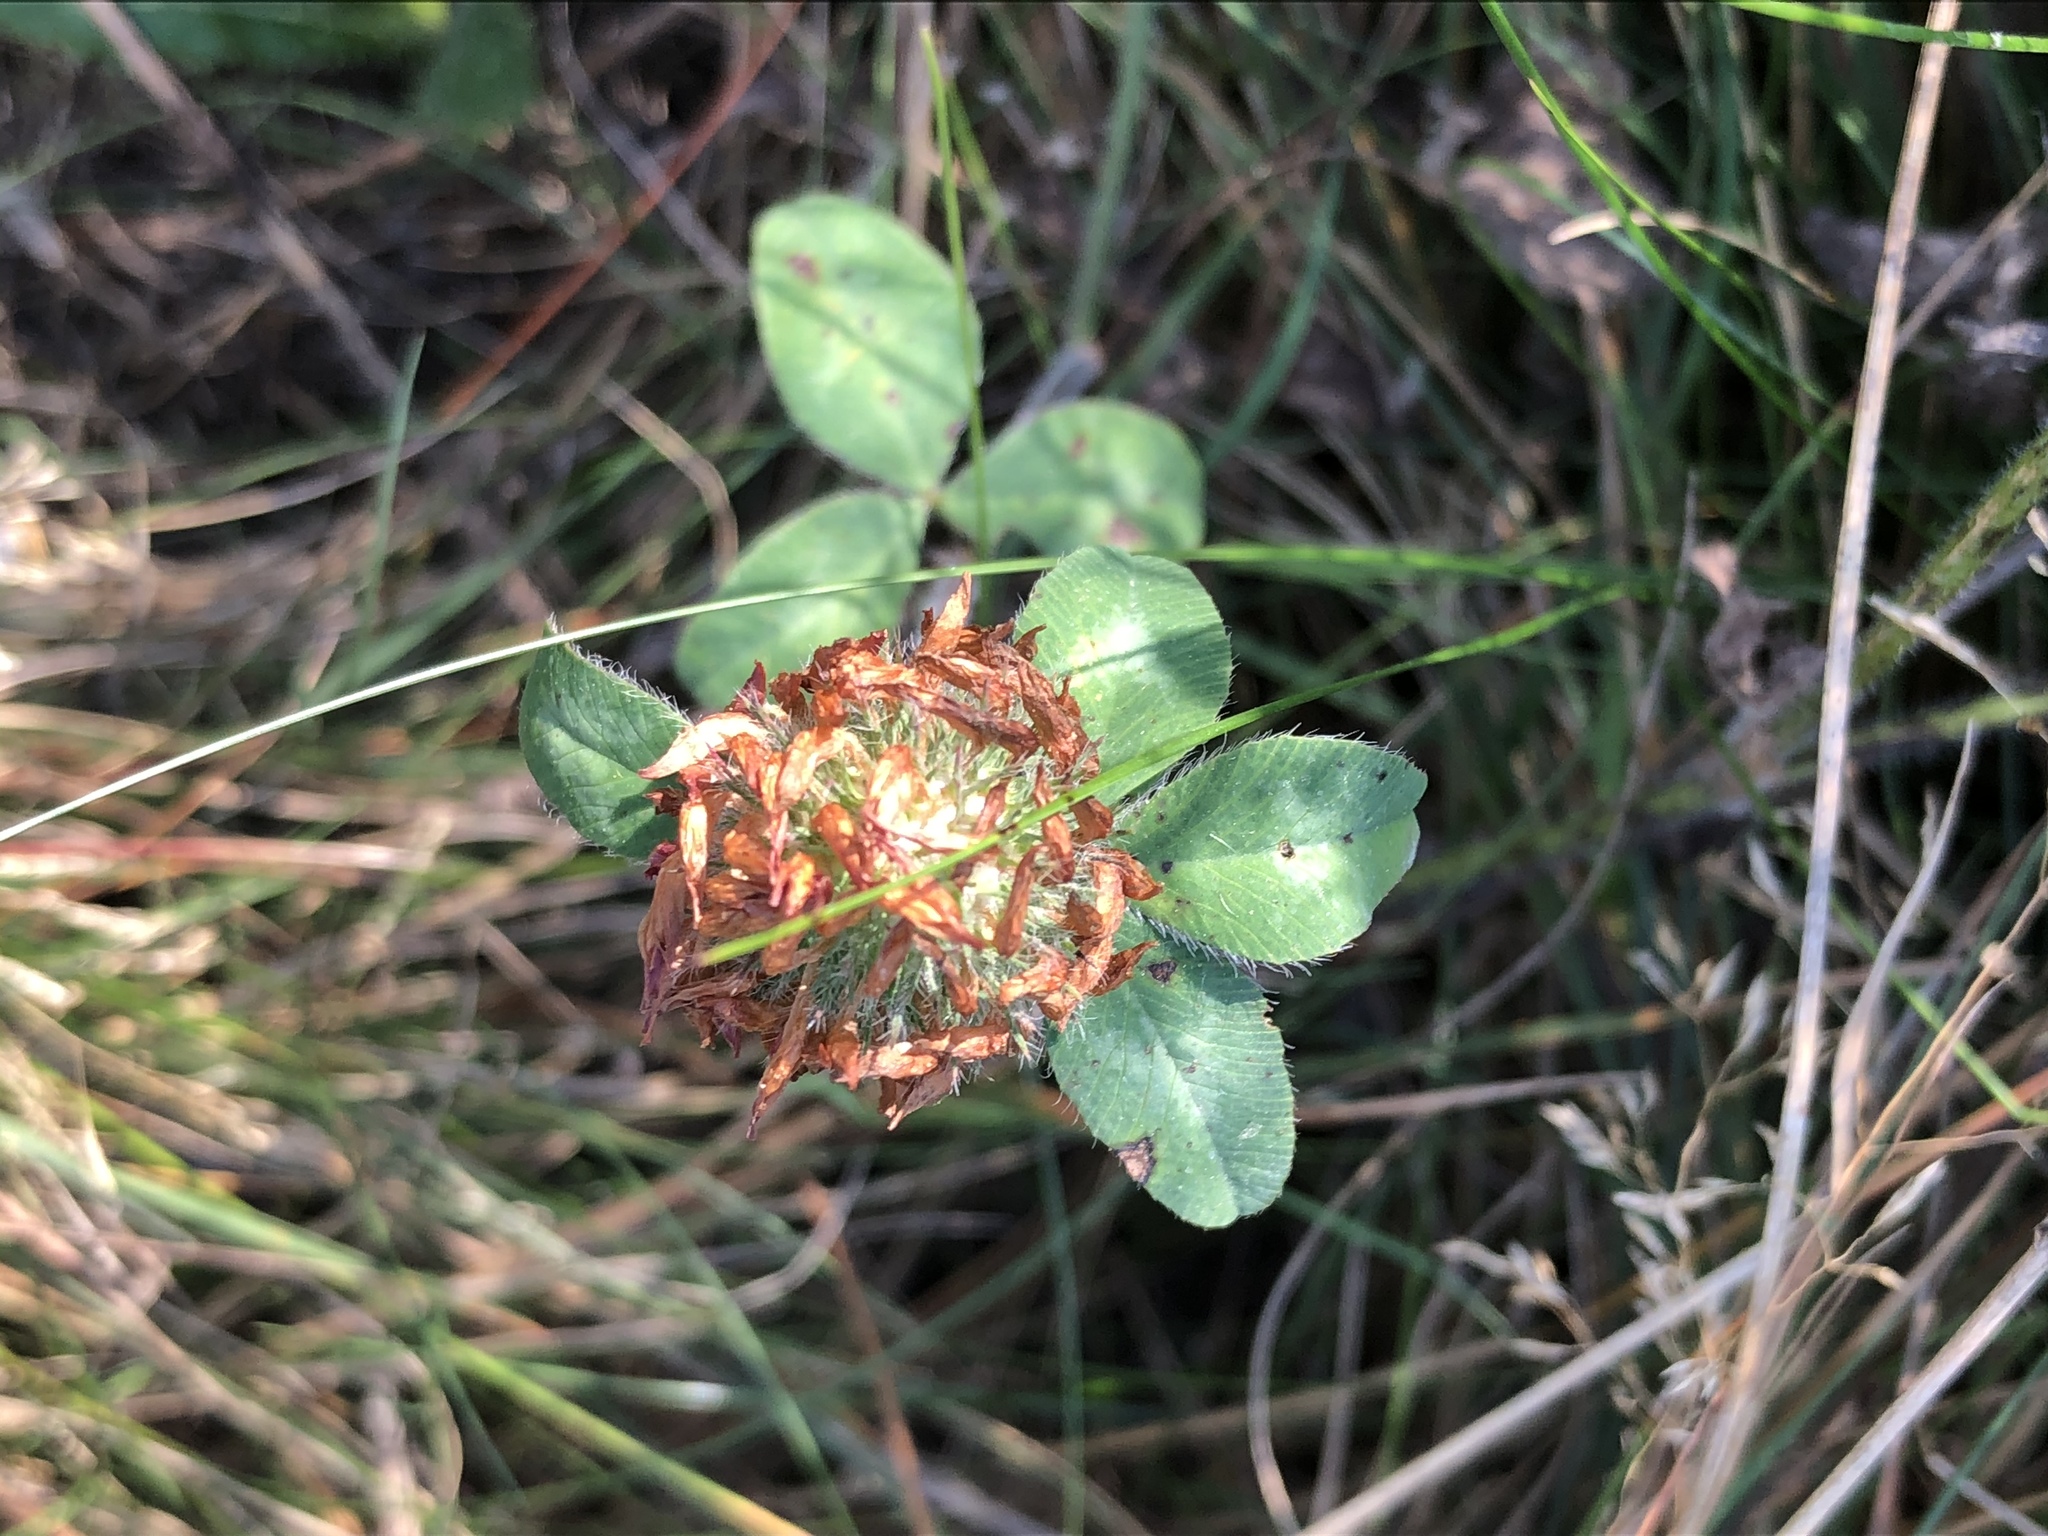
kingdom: Plantae
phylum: Tracheophyta
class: Magnoliopsida
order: Fabales
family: Fabaceae
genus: Trifolium
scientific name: Trifolium pratense
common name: Red clover
